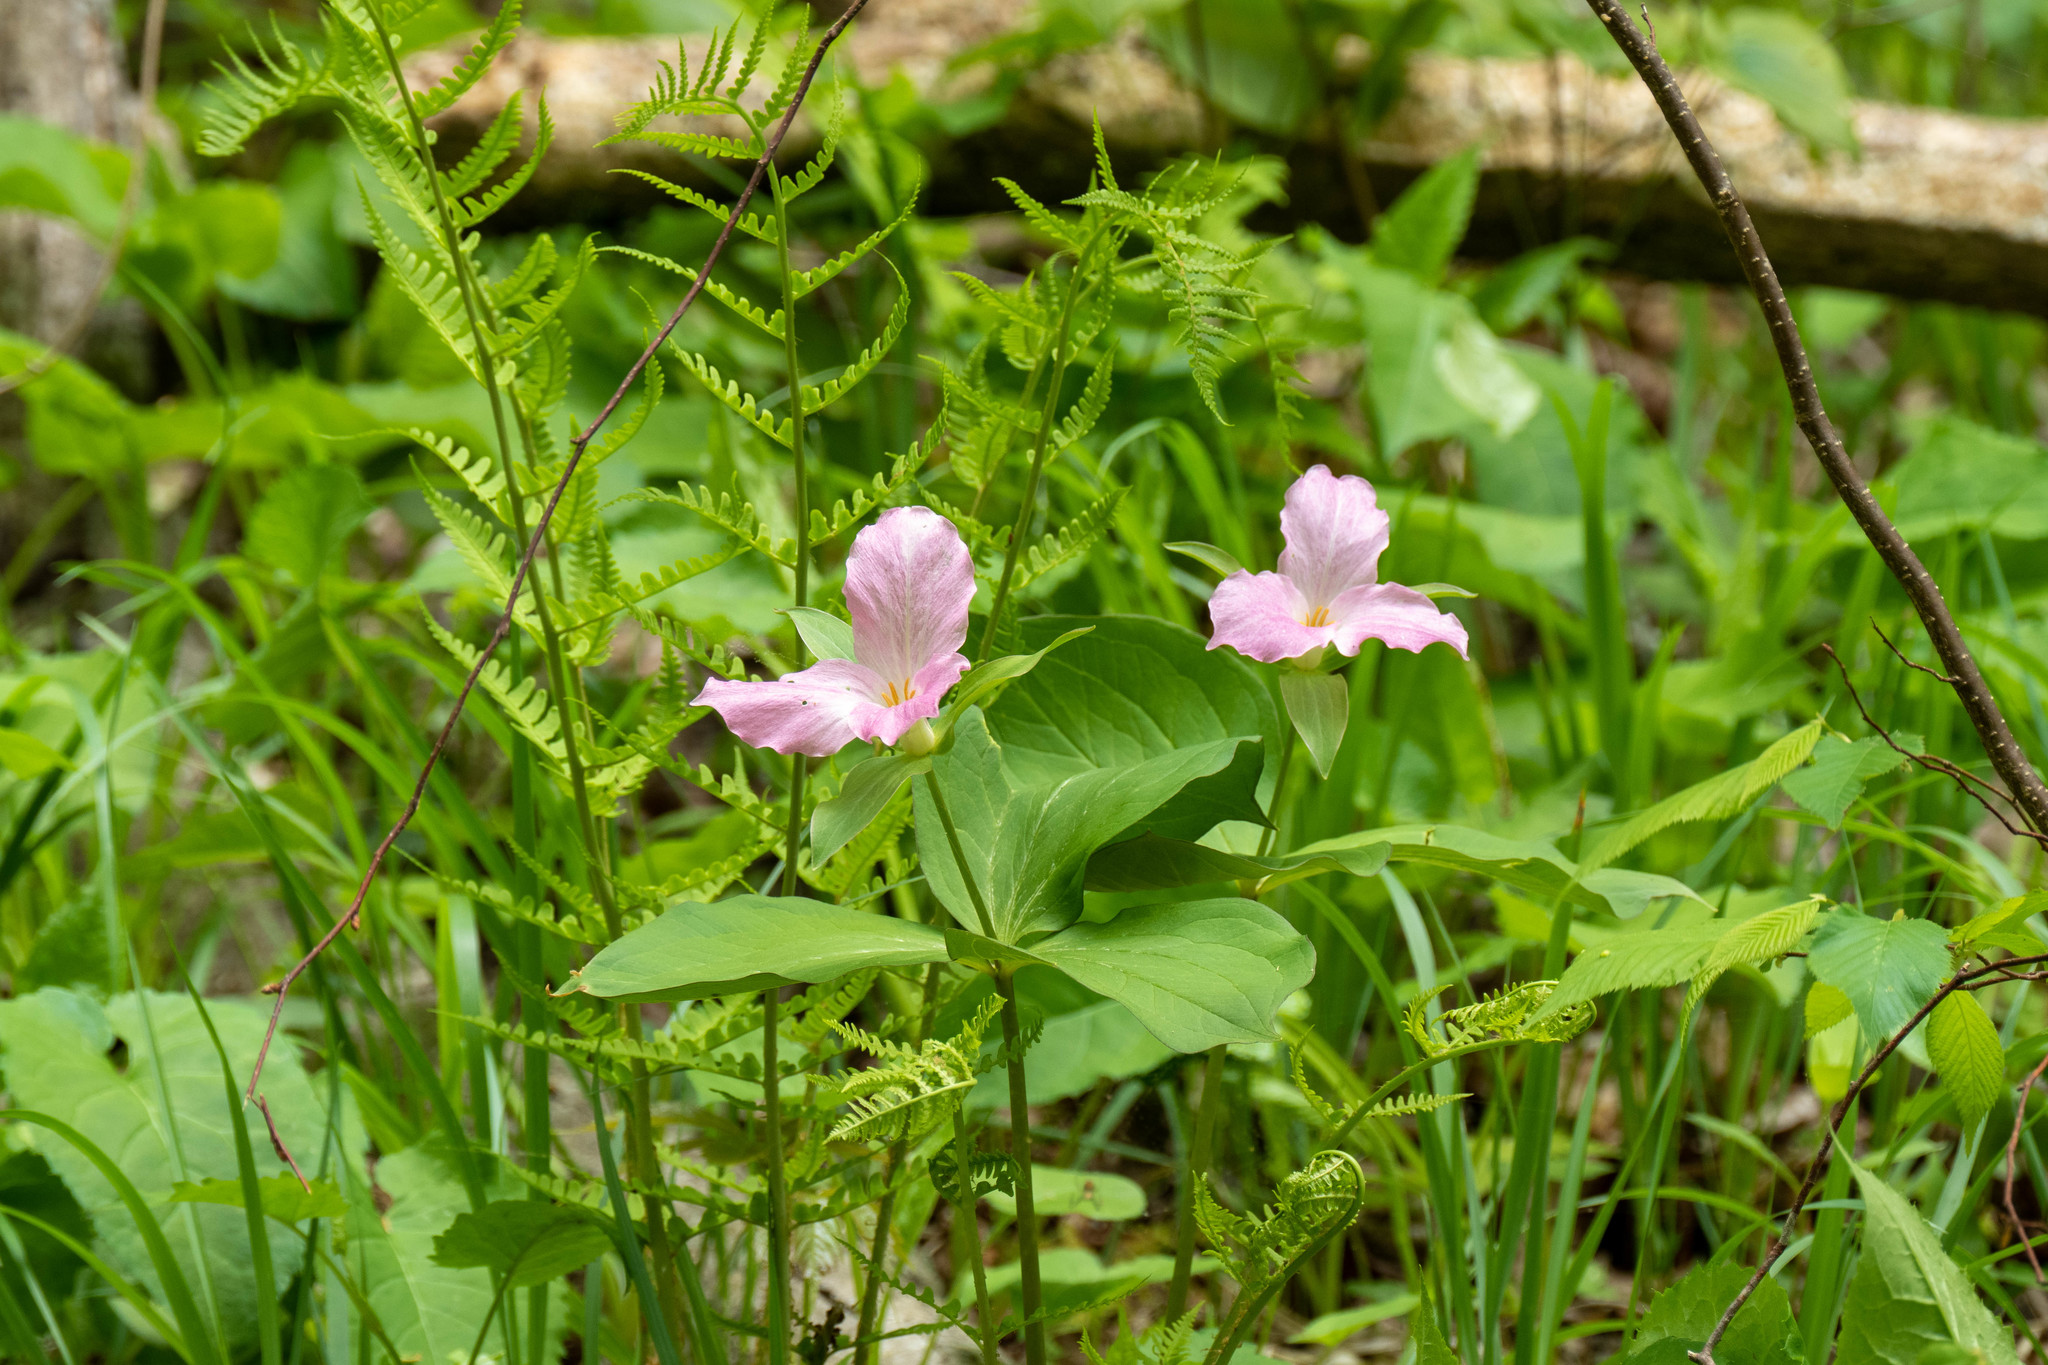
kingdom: Plantae
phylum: Tracheophyta
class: Liliopsida
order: Liliales
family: Melanthiaceae
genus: Trillium
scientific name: Trillium grandiflorum
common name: Great white trillium
